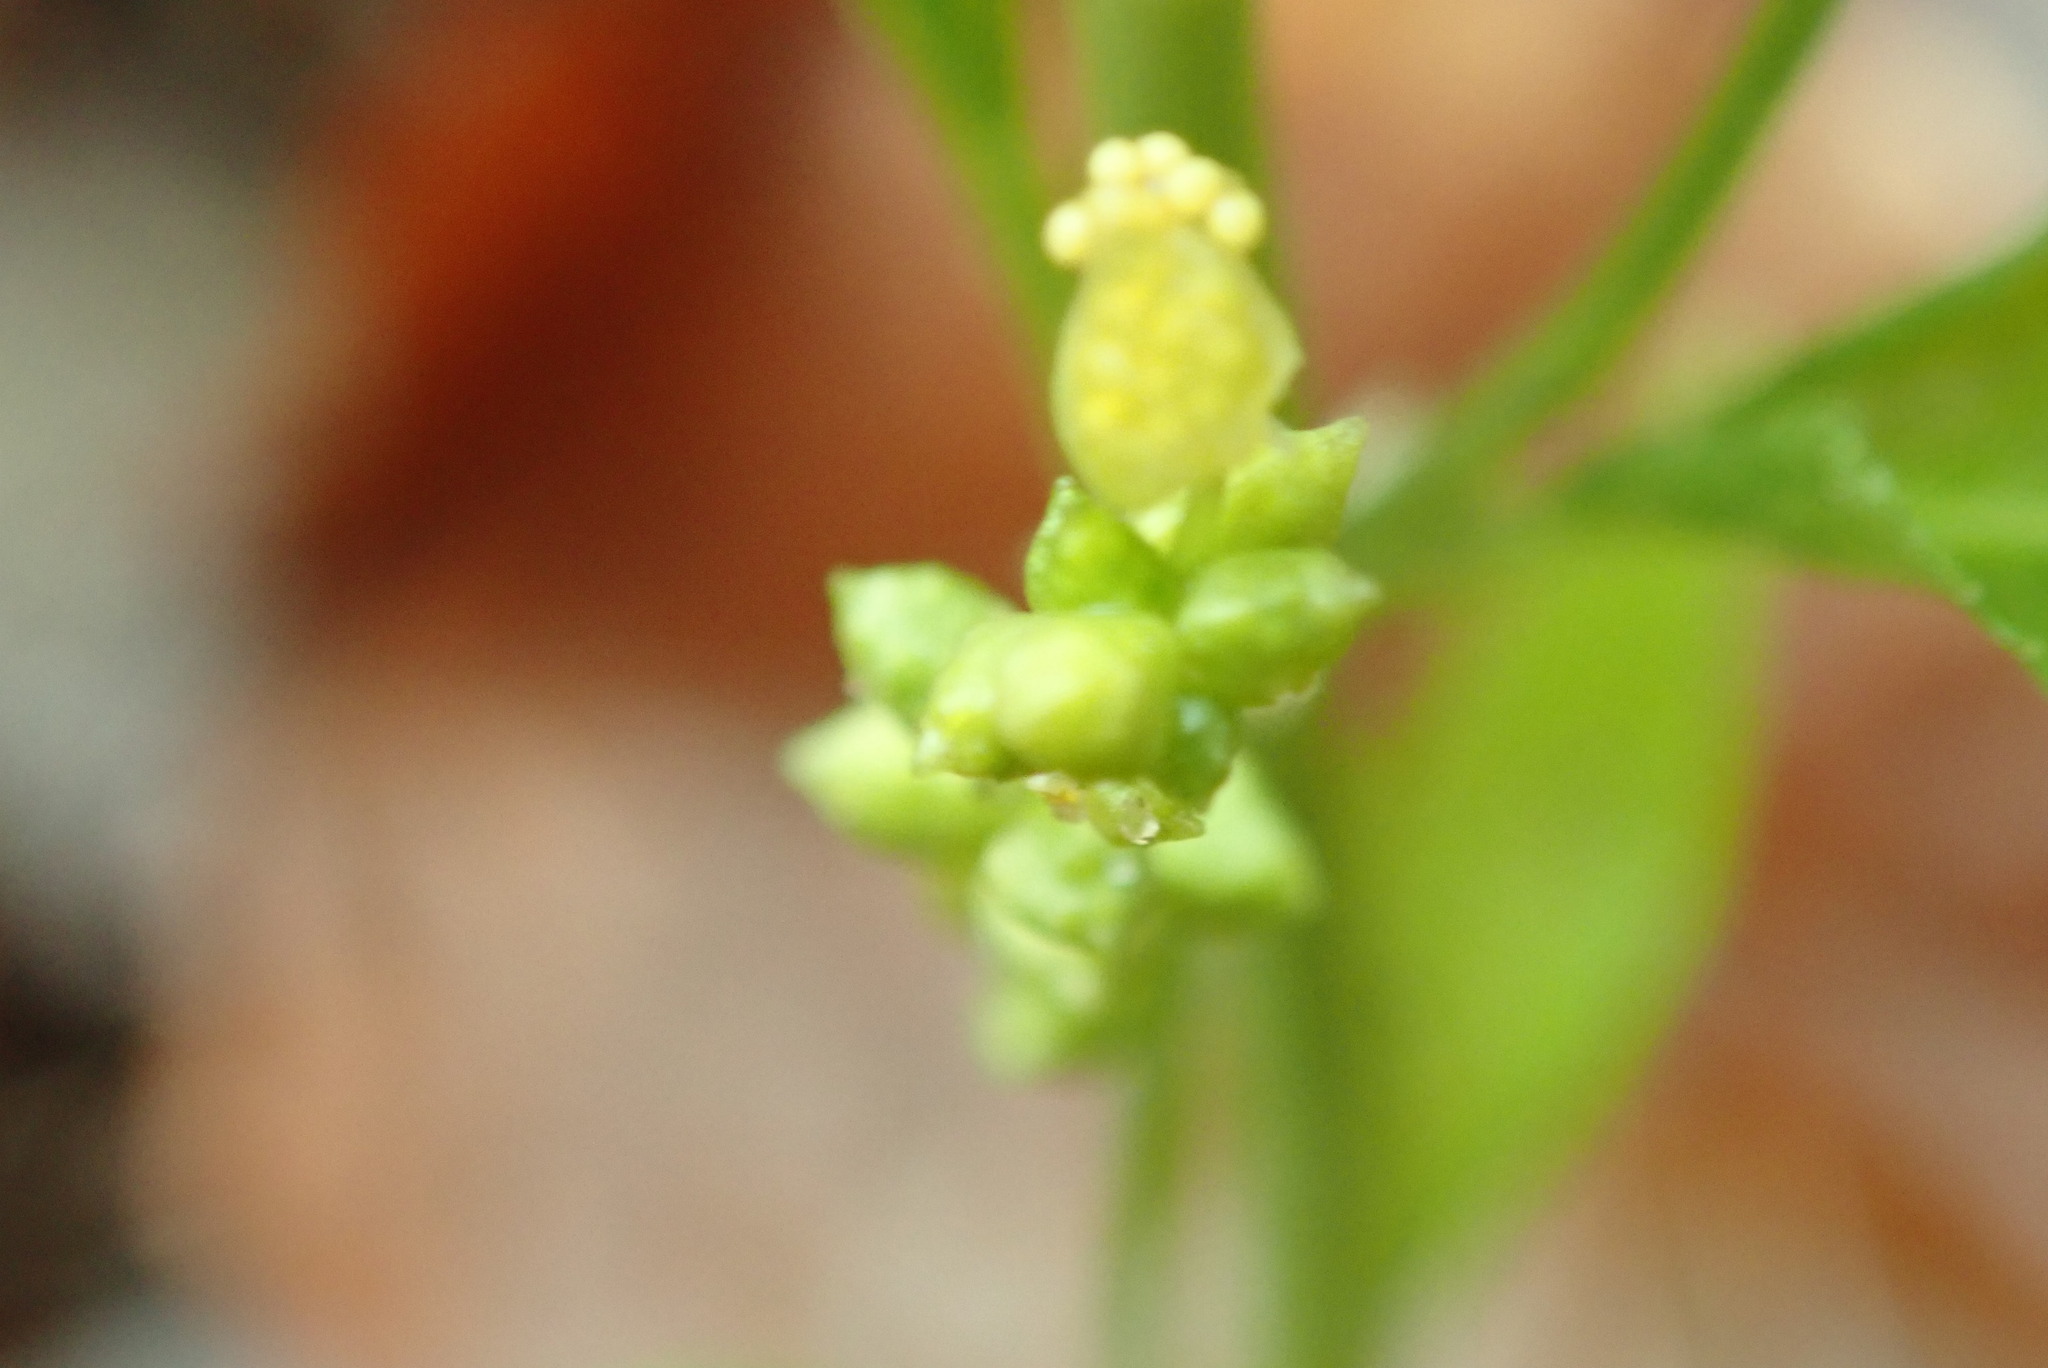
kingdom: Plantae
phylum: Tracheophyta
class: Magnoliopsida
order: Malpighiales
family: Euphorbiaceae
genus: Mercurialis
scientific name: Mercurialis perennis
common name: Dog mercury
